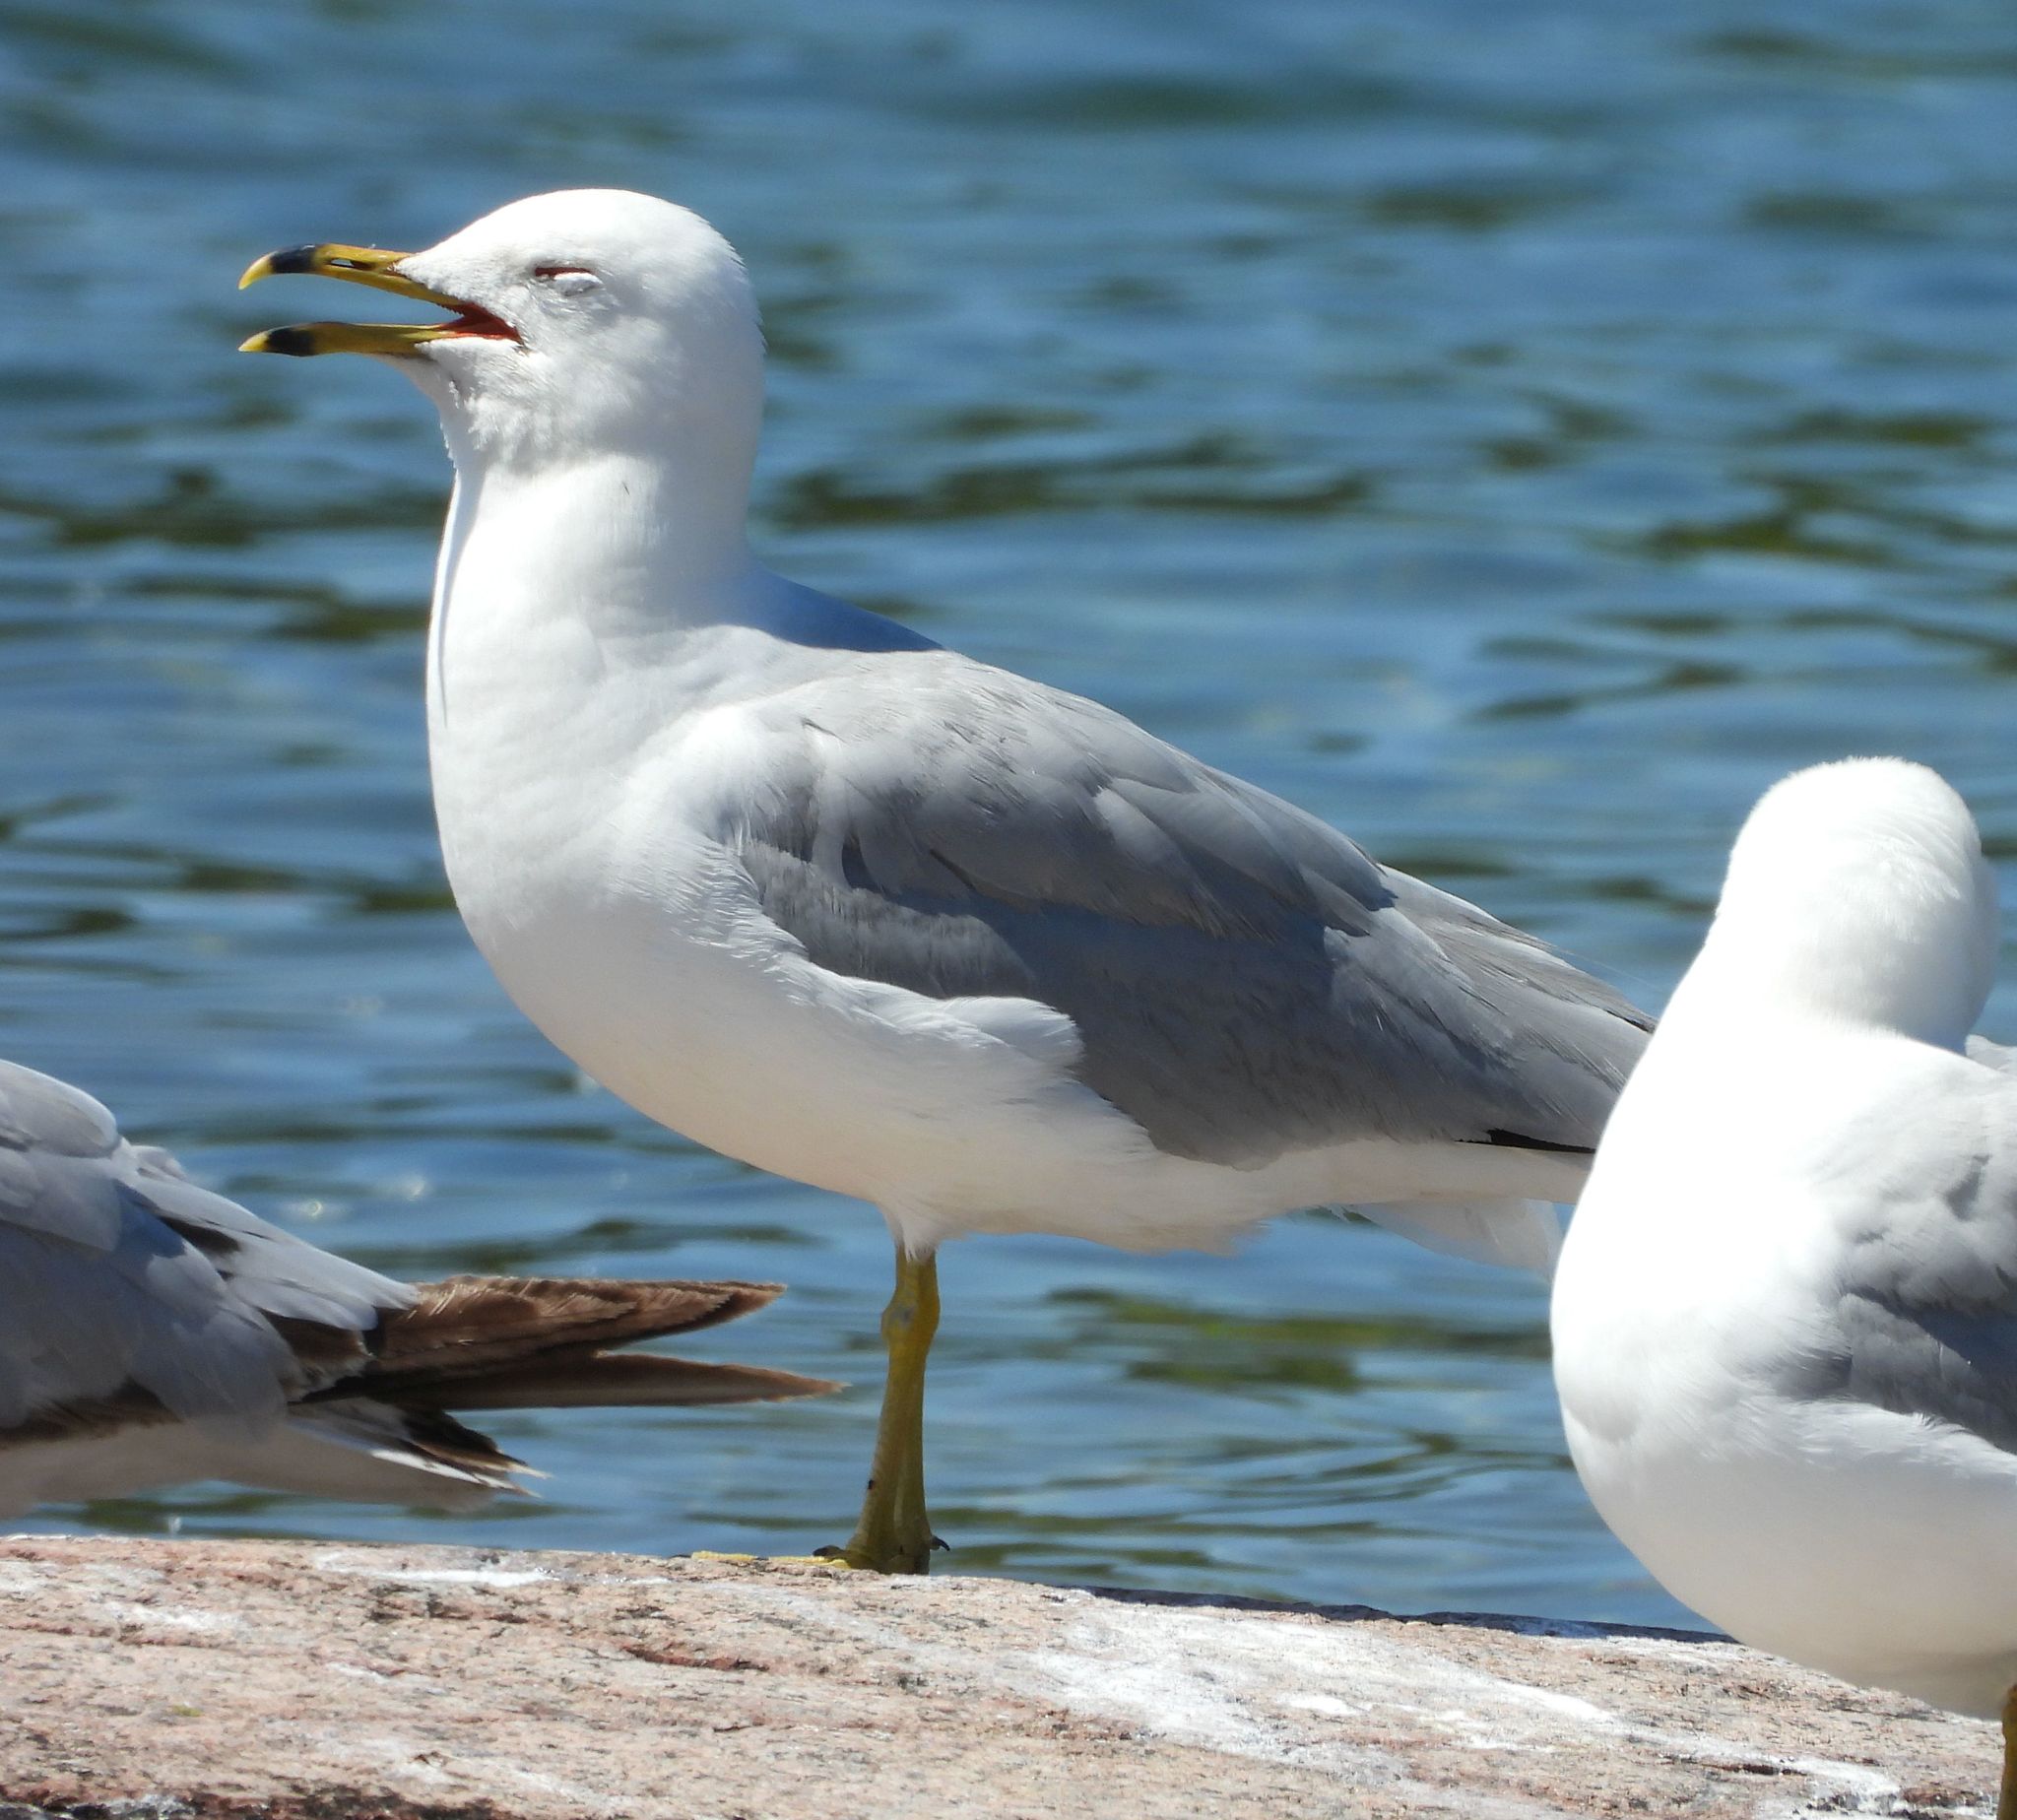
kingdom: Animalia
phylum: Chordata
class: Aves
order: Charadriiformes
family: Laridae
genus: Larus
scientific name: Larus delawarensis
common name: Ring-billed gull
